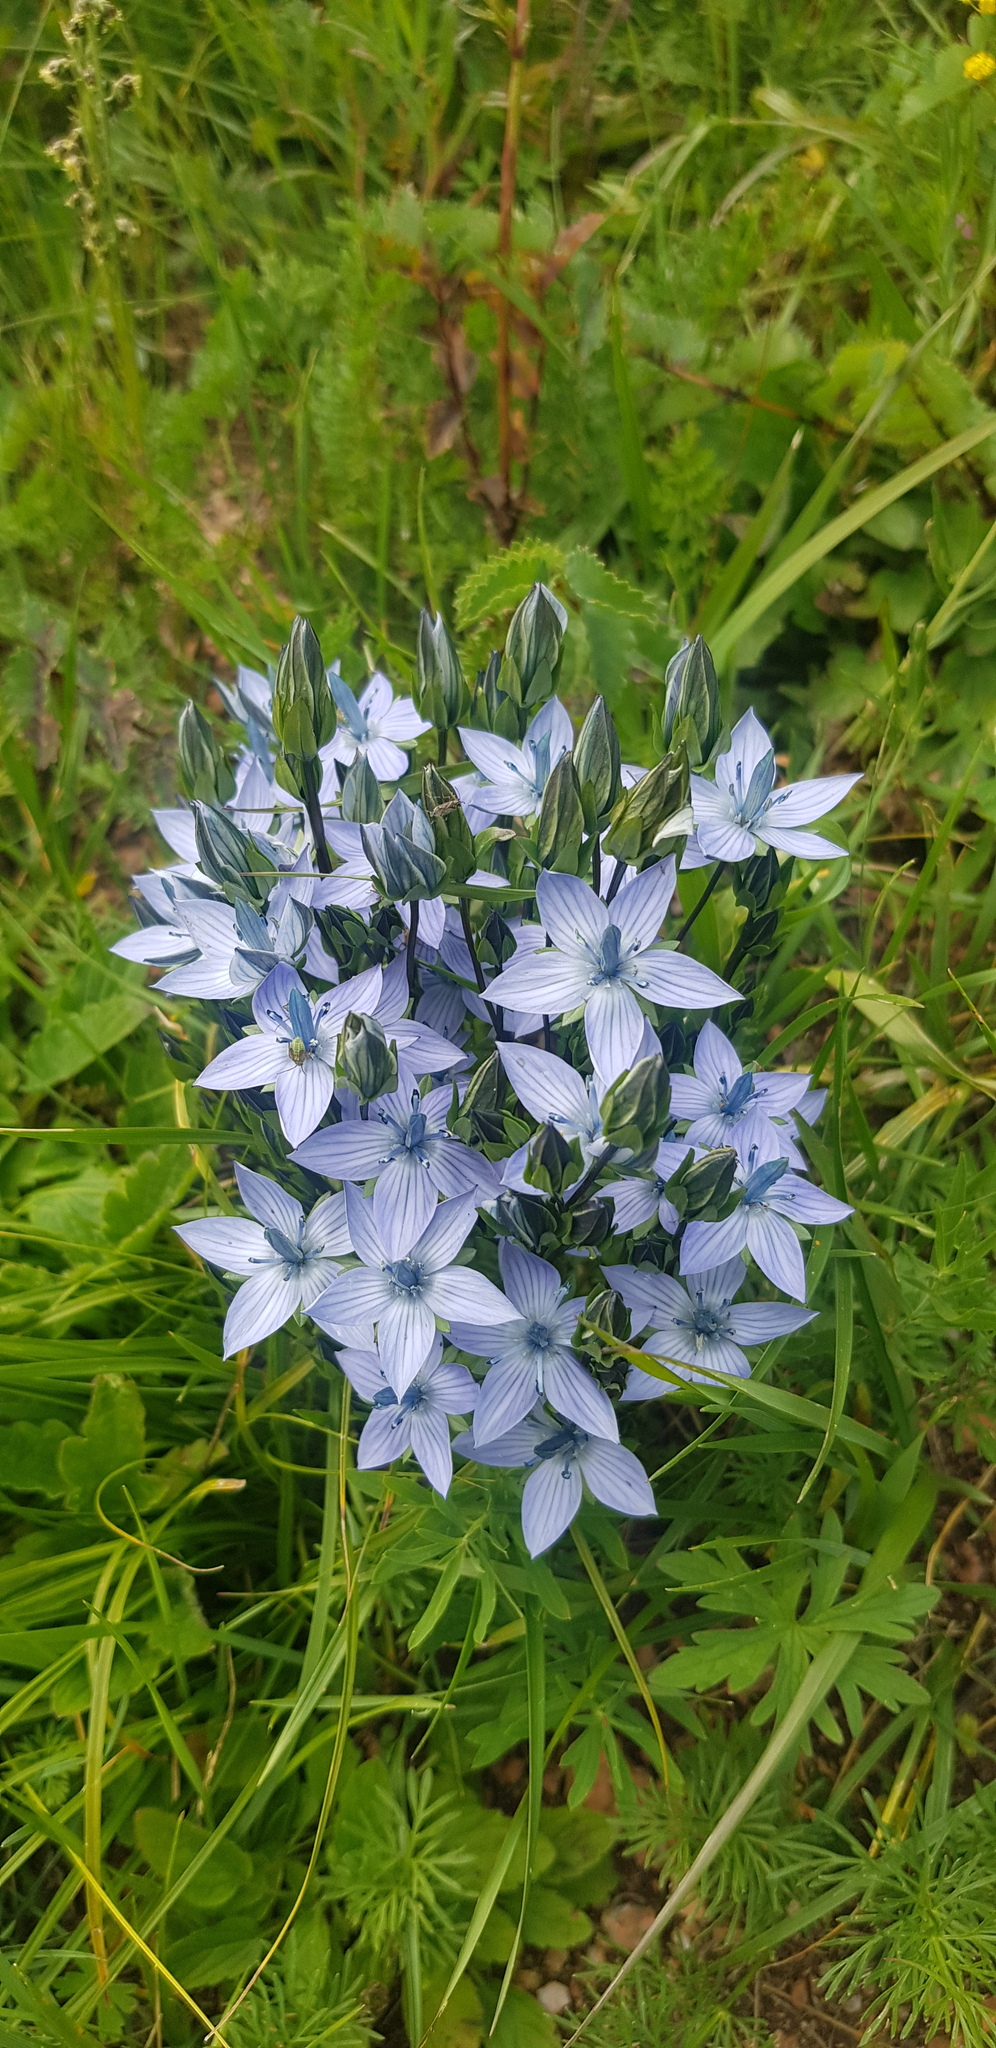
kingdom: Plantae
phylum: Tracheophyta
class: Magnoliopsida
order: Gentianales
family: Gentianaceae
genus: Lomatogonium
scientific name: Lomatogonium carinthiacum
